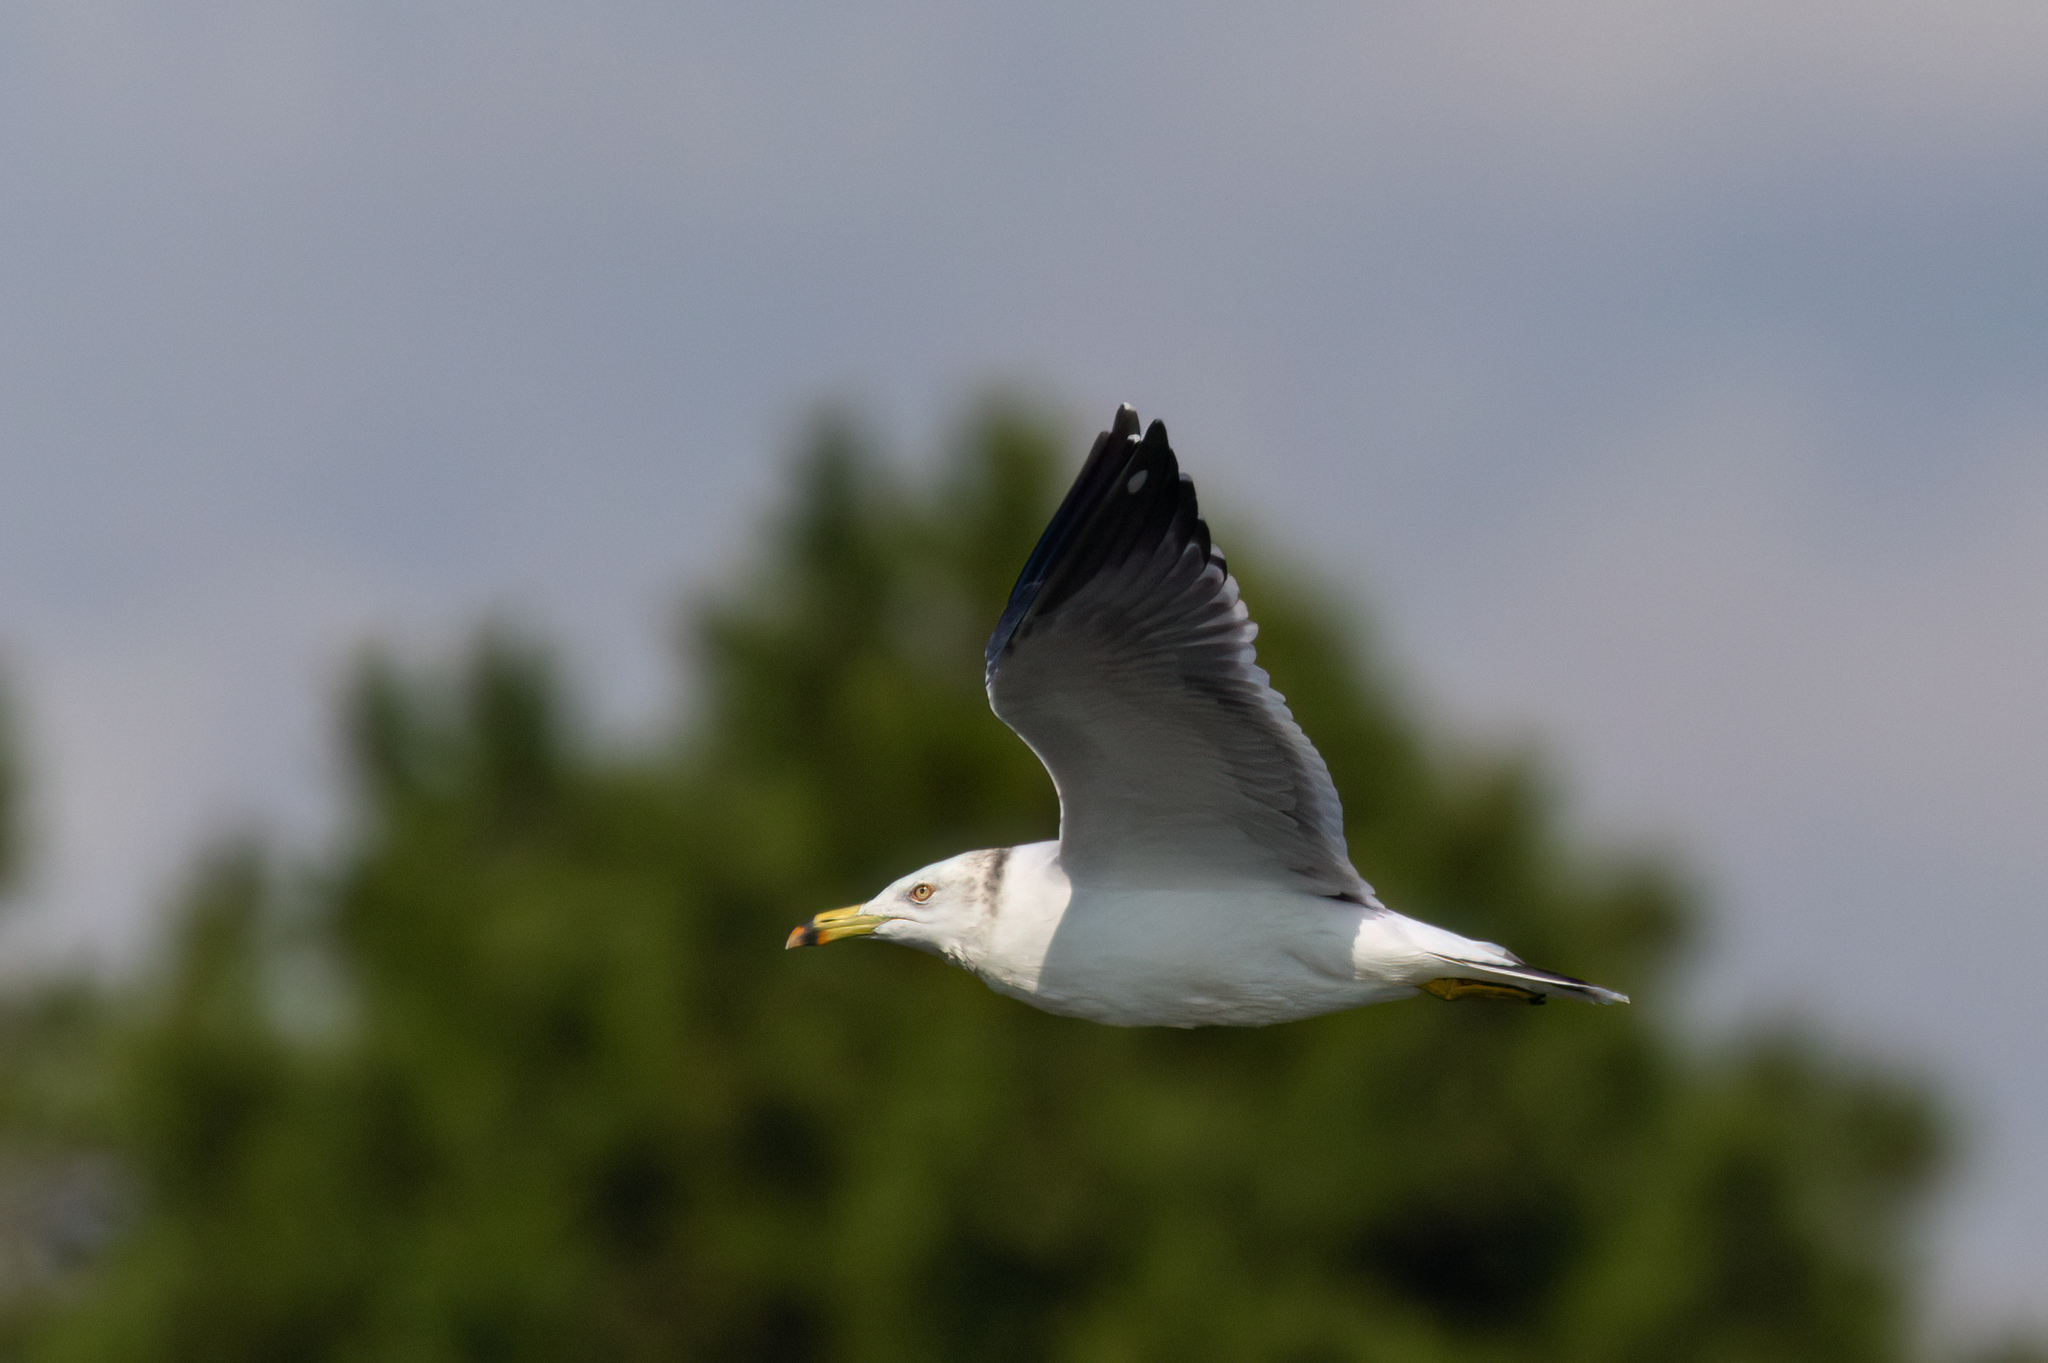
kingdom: Animalia
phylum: Chordata
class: Aves
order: Charadriiformes
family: Laridae
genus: Larus
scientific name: Larus crassirostris
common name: Black-tailed gull
